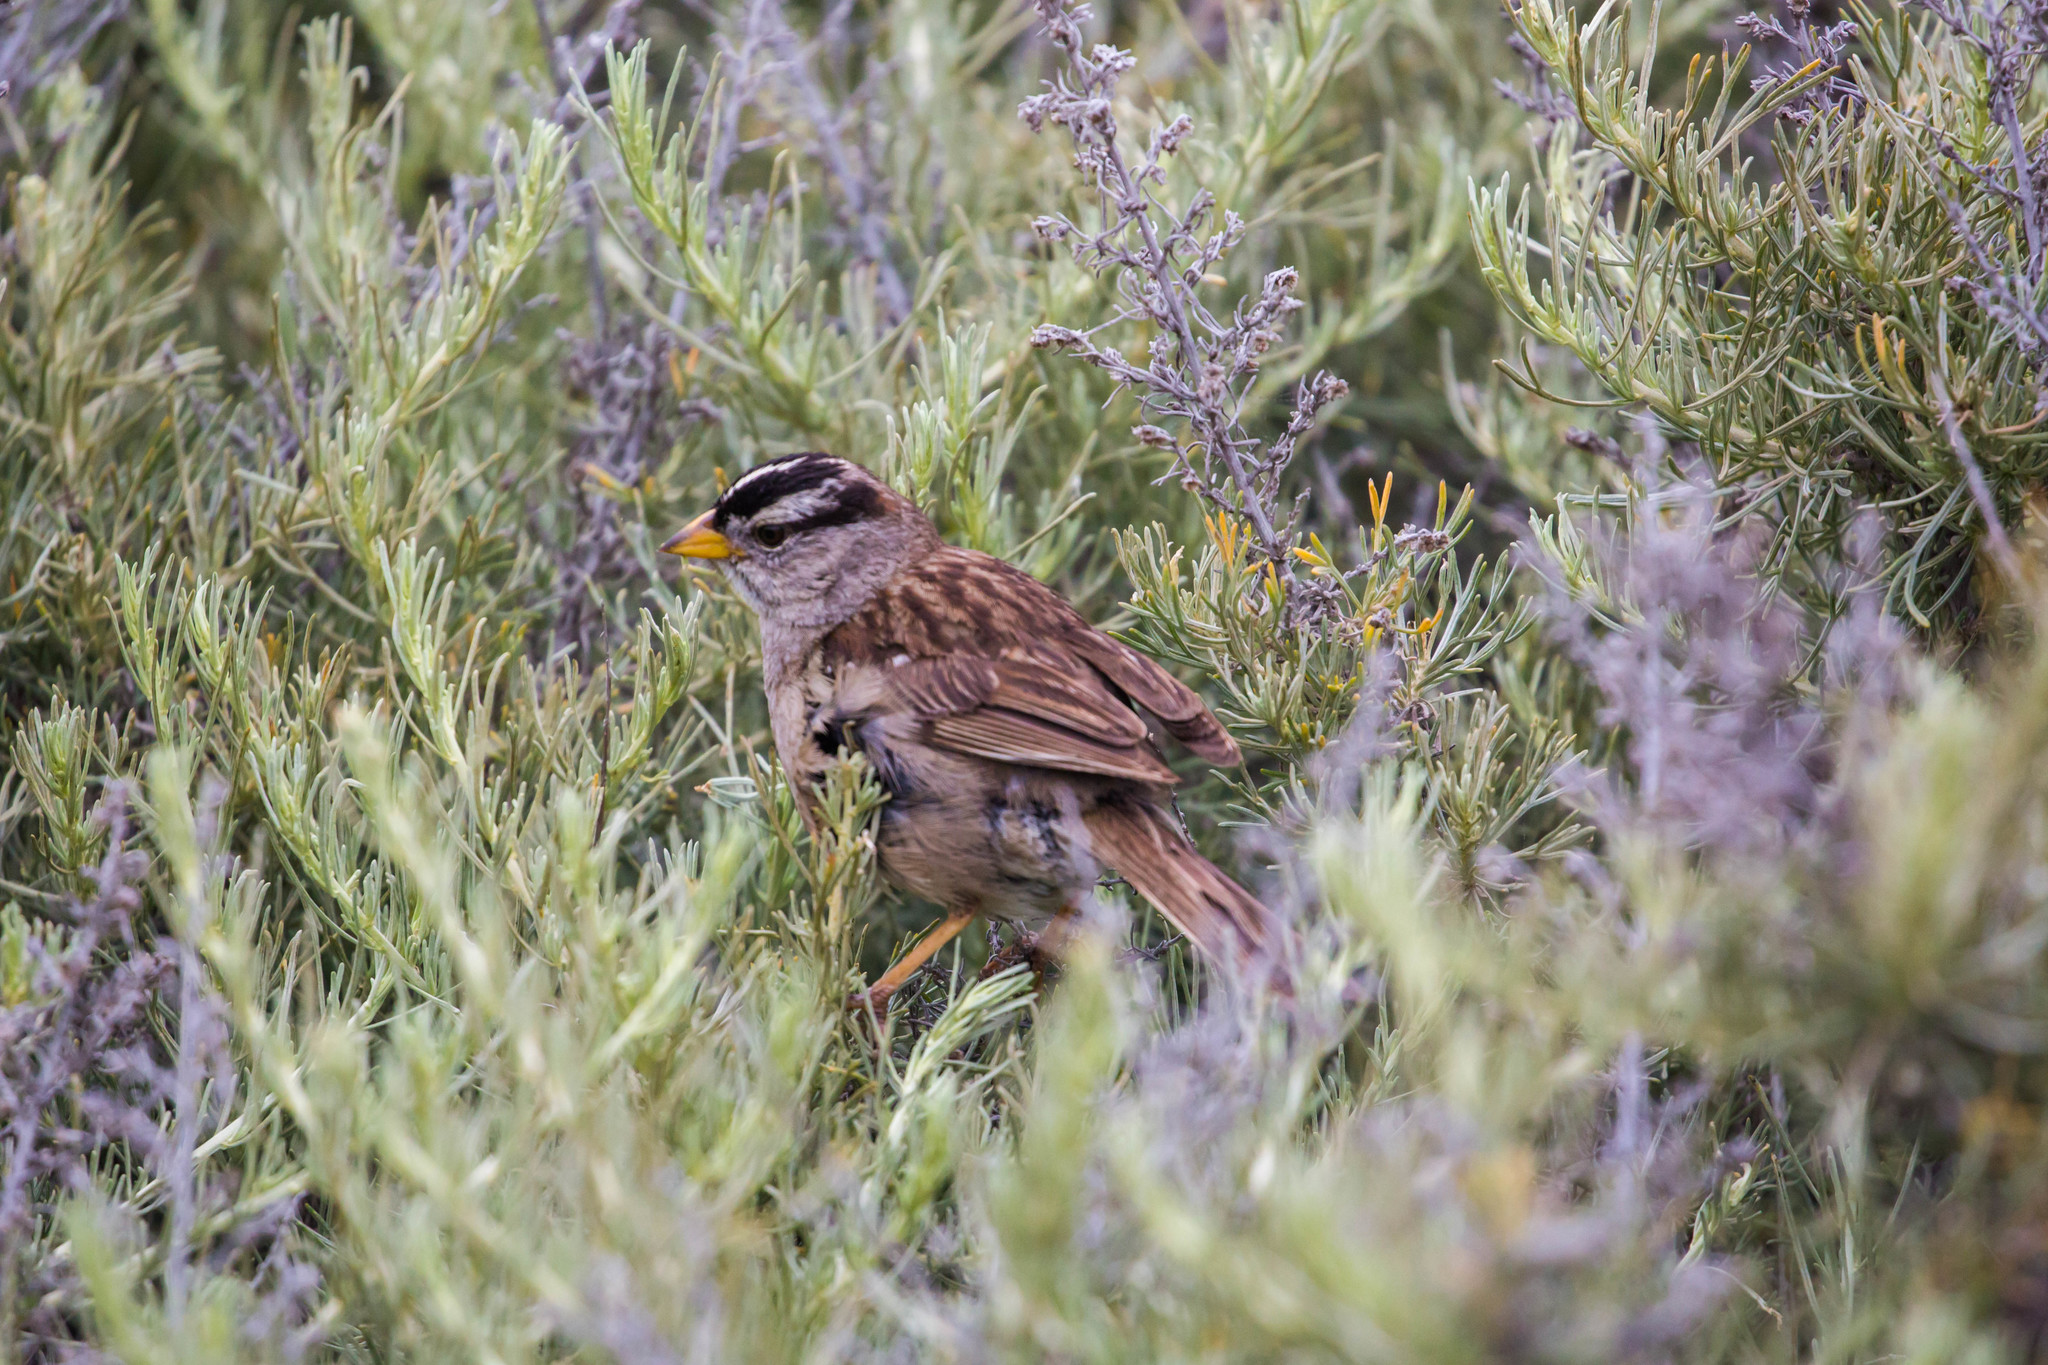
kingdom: Animalia
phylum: Chordata
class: Aves
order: Passeriformes
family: Passerellidae
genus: Zonotrichia
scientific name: Zonotrichia leucophrys
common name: White-crowned sparrow
